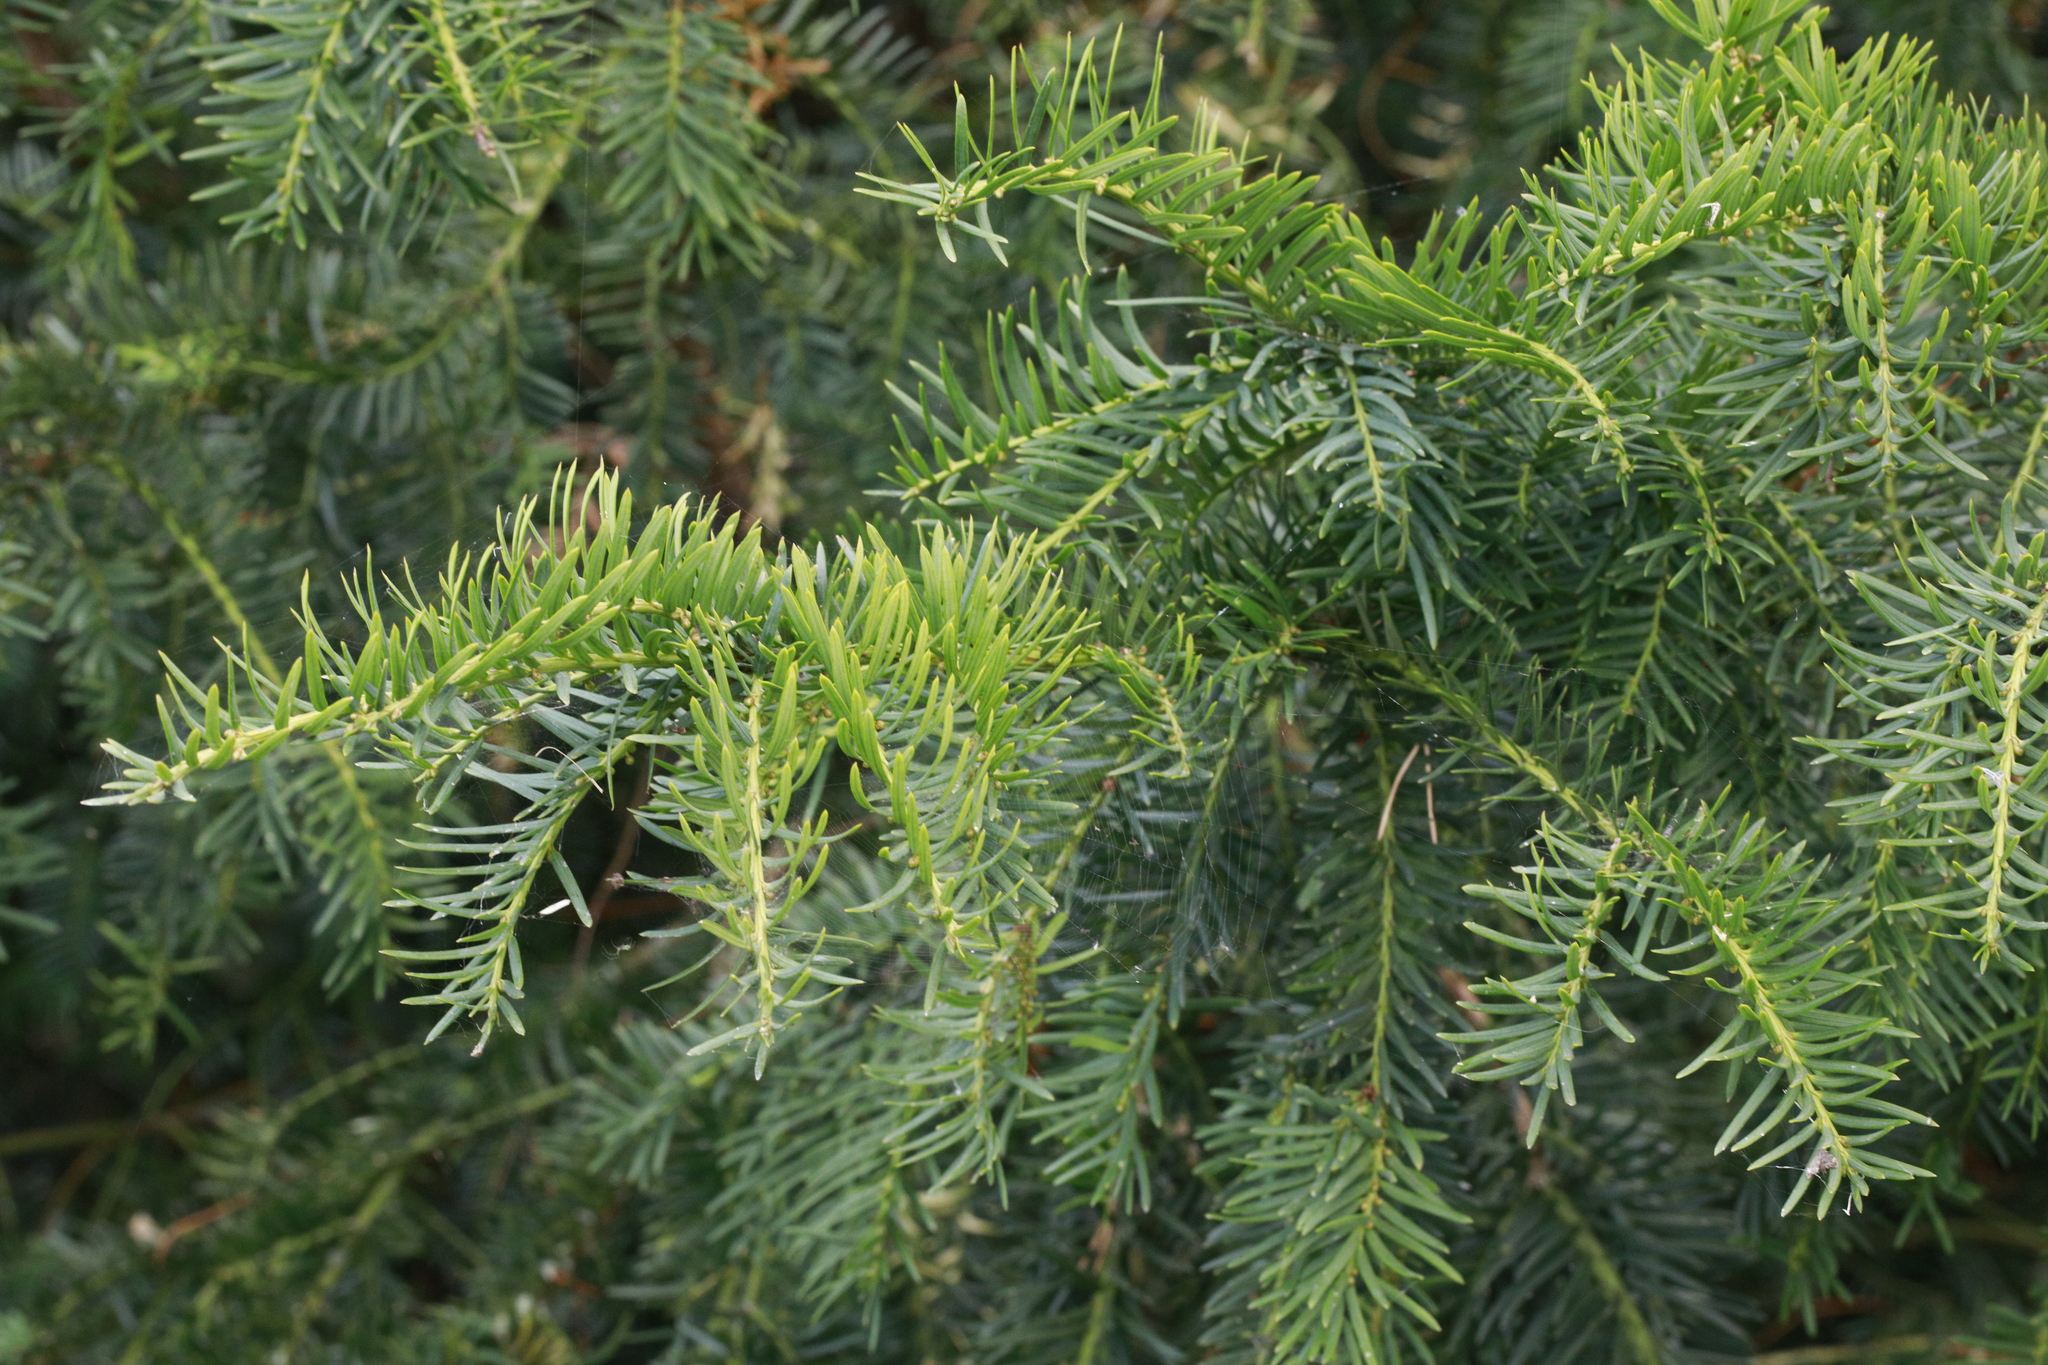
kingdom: Plantae
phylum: Tracheophyta
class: Pinopsida
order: Pinales
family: Taxaceae
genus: Taxus
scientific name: Taxus baccata
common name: Yew
